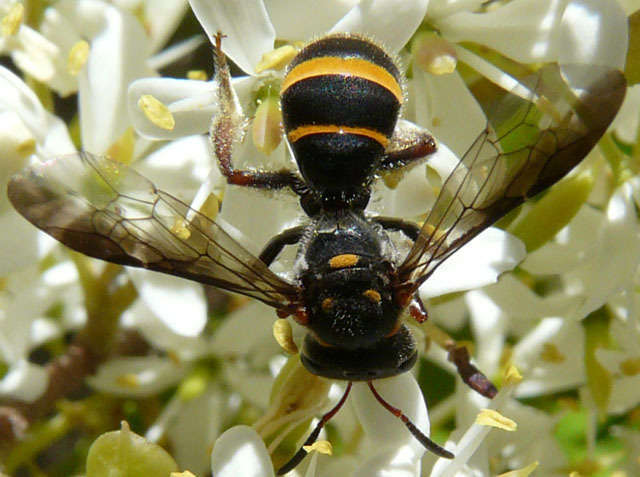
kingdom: Animalia
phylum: Arthropoda
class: Insecta
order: Hymenoptera
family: Halictidae
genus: Lasioglossum
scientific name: Lasioglossum peraustrale
